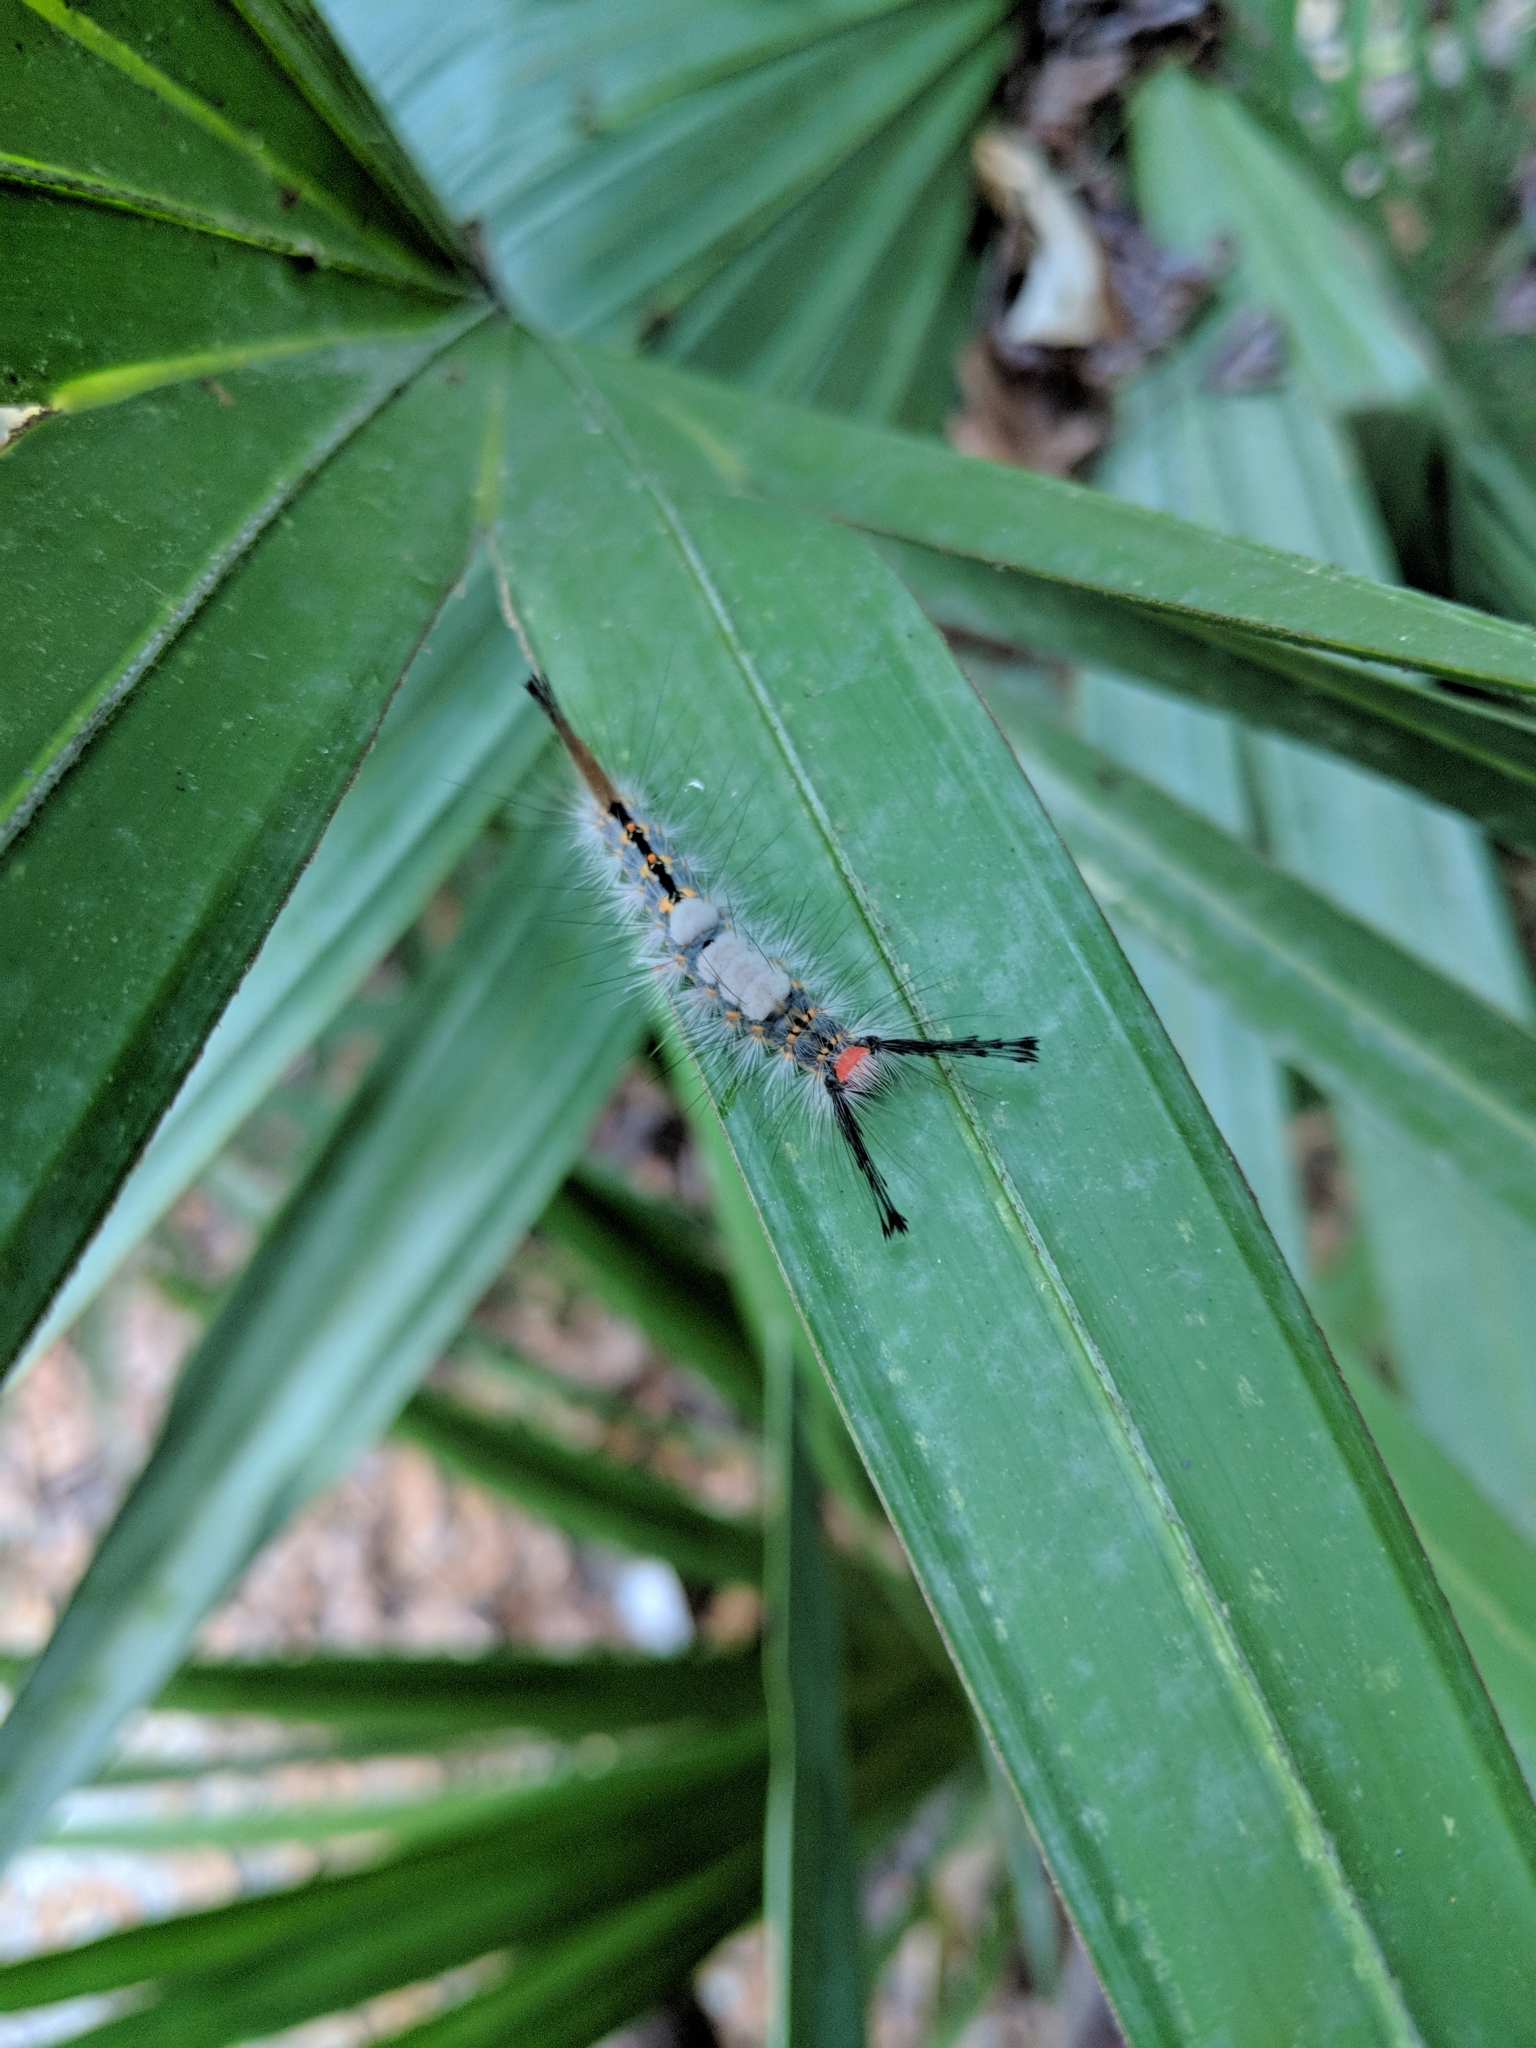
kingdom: Animalia
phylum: Arthropoda
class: Insecta
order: Lepidoptera
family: Erebidae
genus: Orgyia
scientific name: Orgyia detrita
